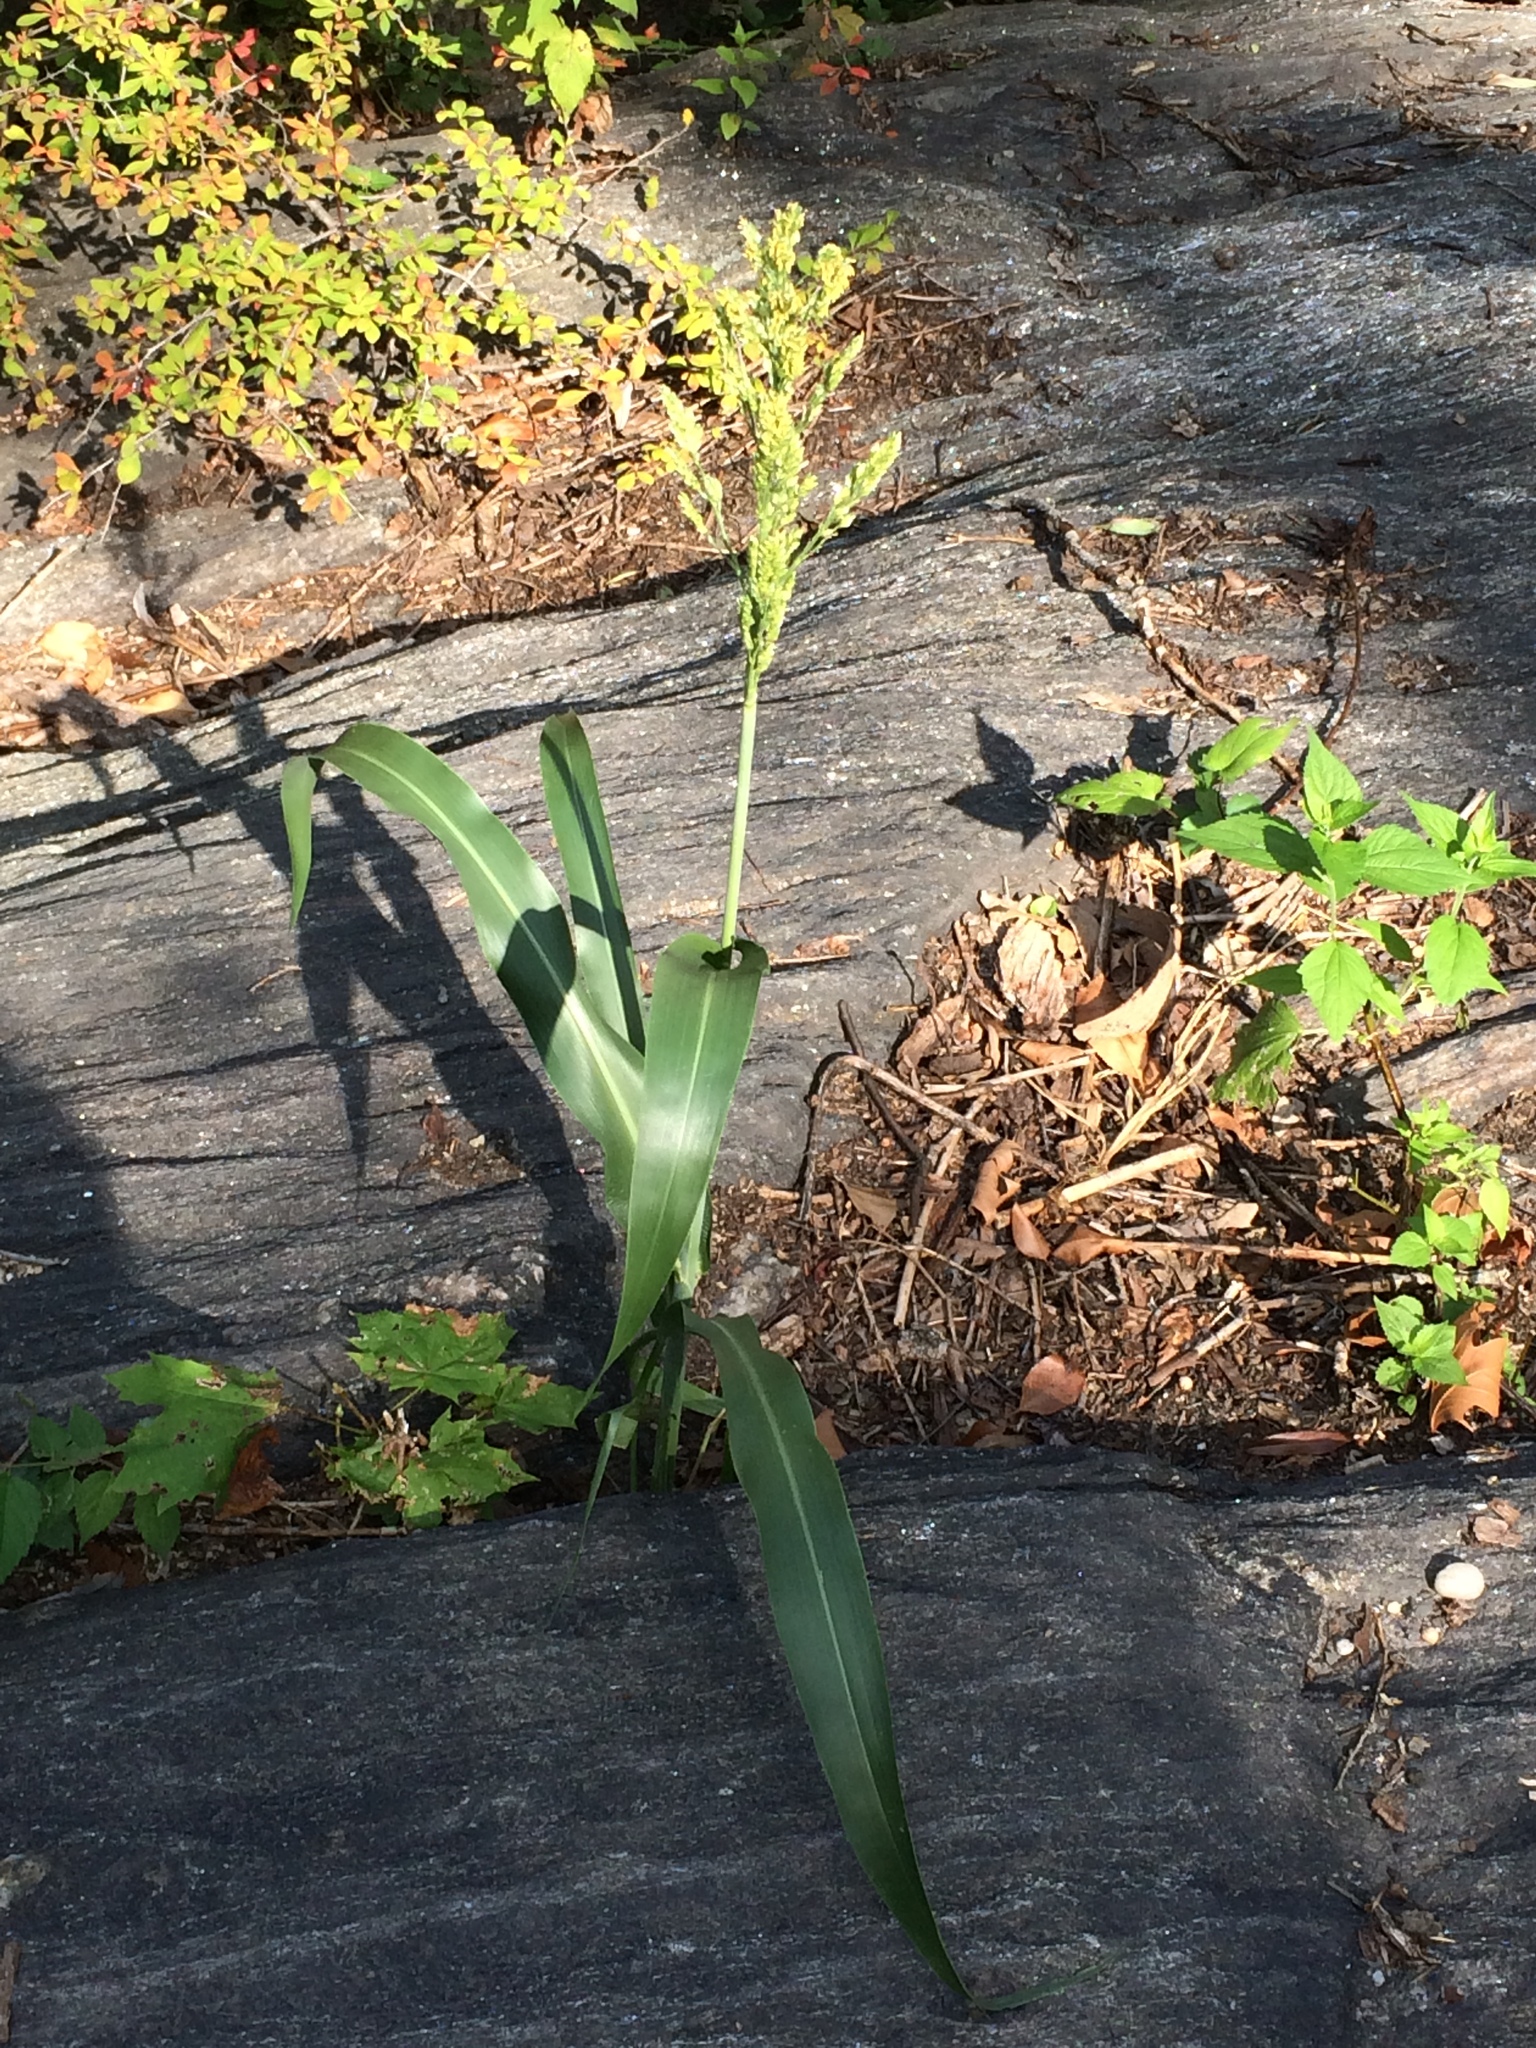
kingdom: Plantae
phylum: Tracheophyta
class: Liliopsida
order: Poales
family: Poaceae
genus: Sorghum
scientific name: Sorghum bicolor
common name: Sorghum
